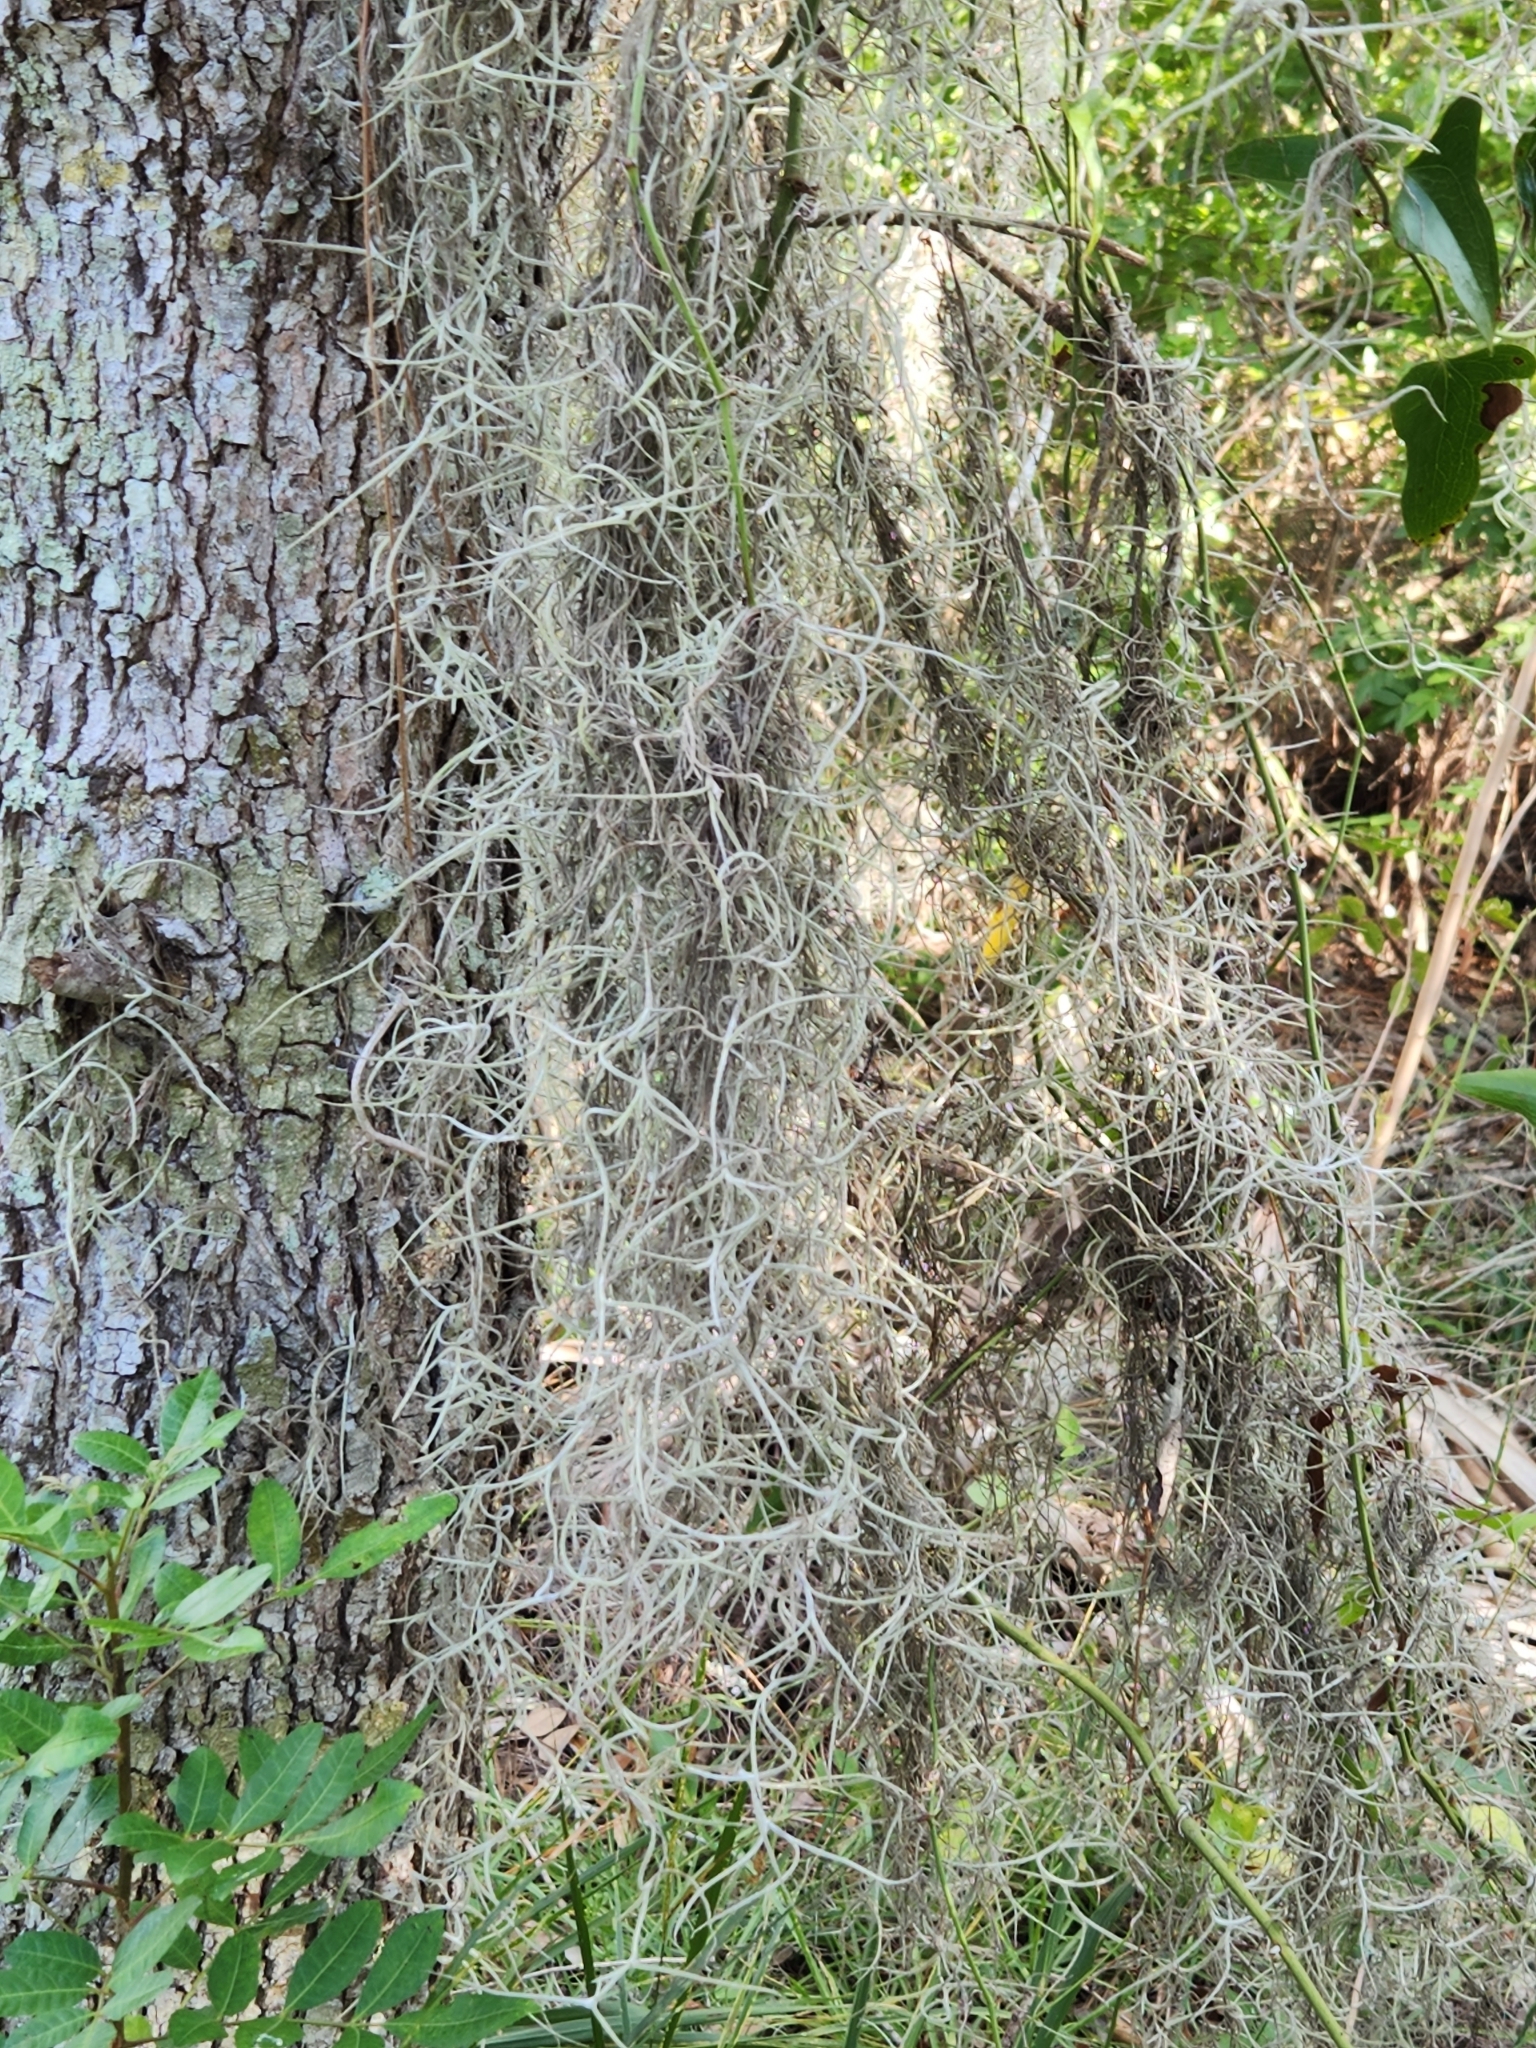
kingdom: Plantae
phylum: Tracheophyta
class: Liliopsida
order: Poales
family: Bromeliaceae
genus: Tillandsia
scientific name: Tillandsia usneoides
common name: Spanish moss
